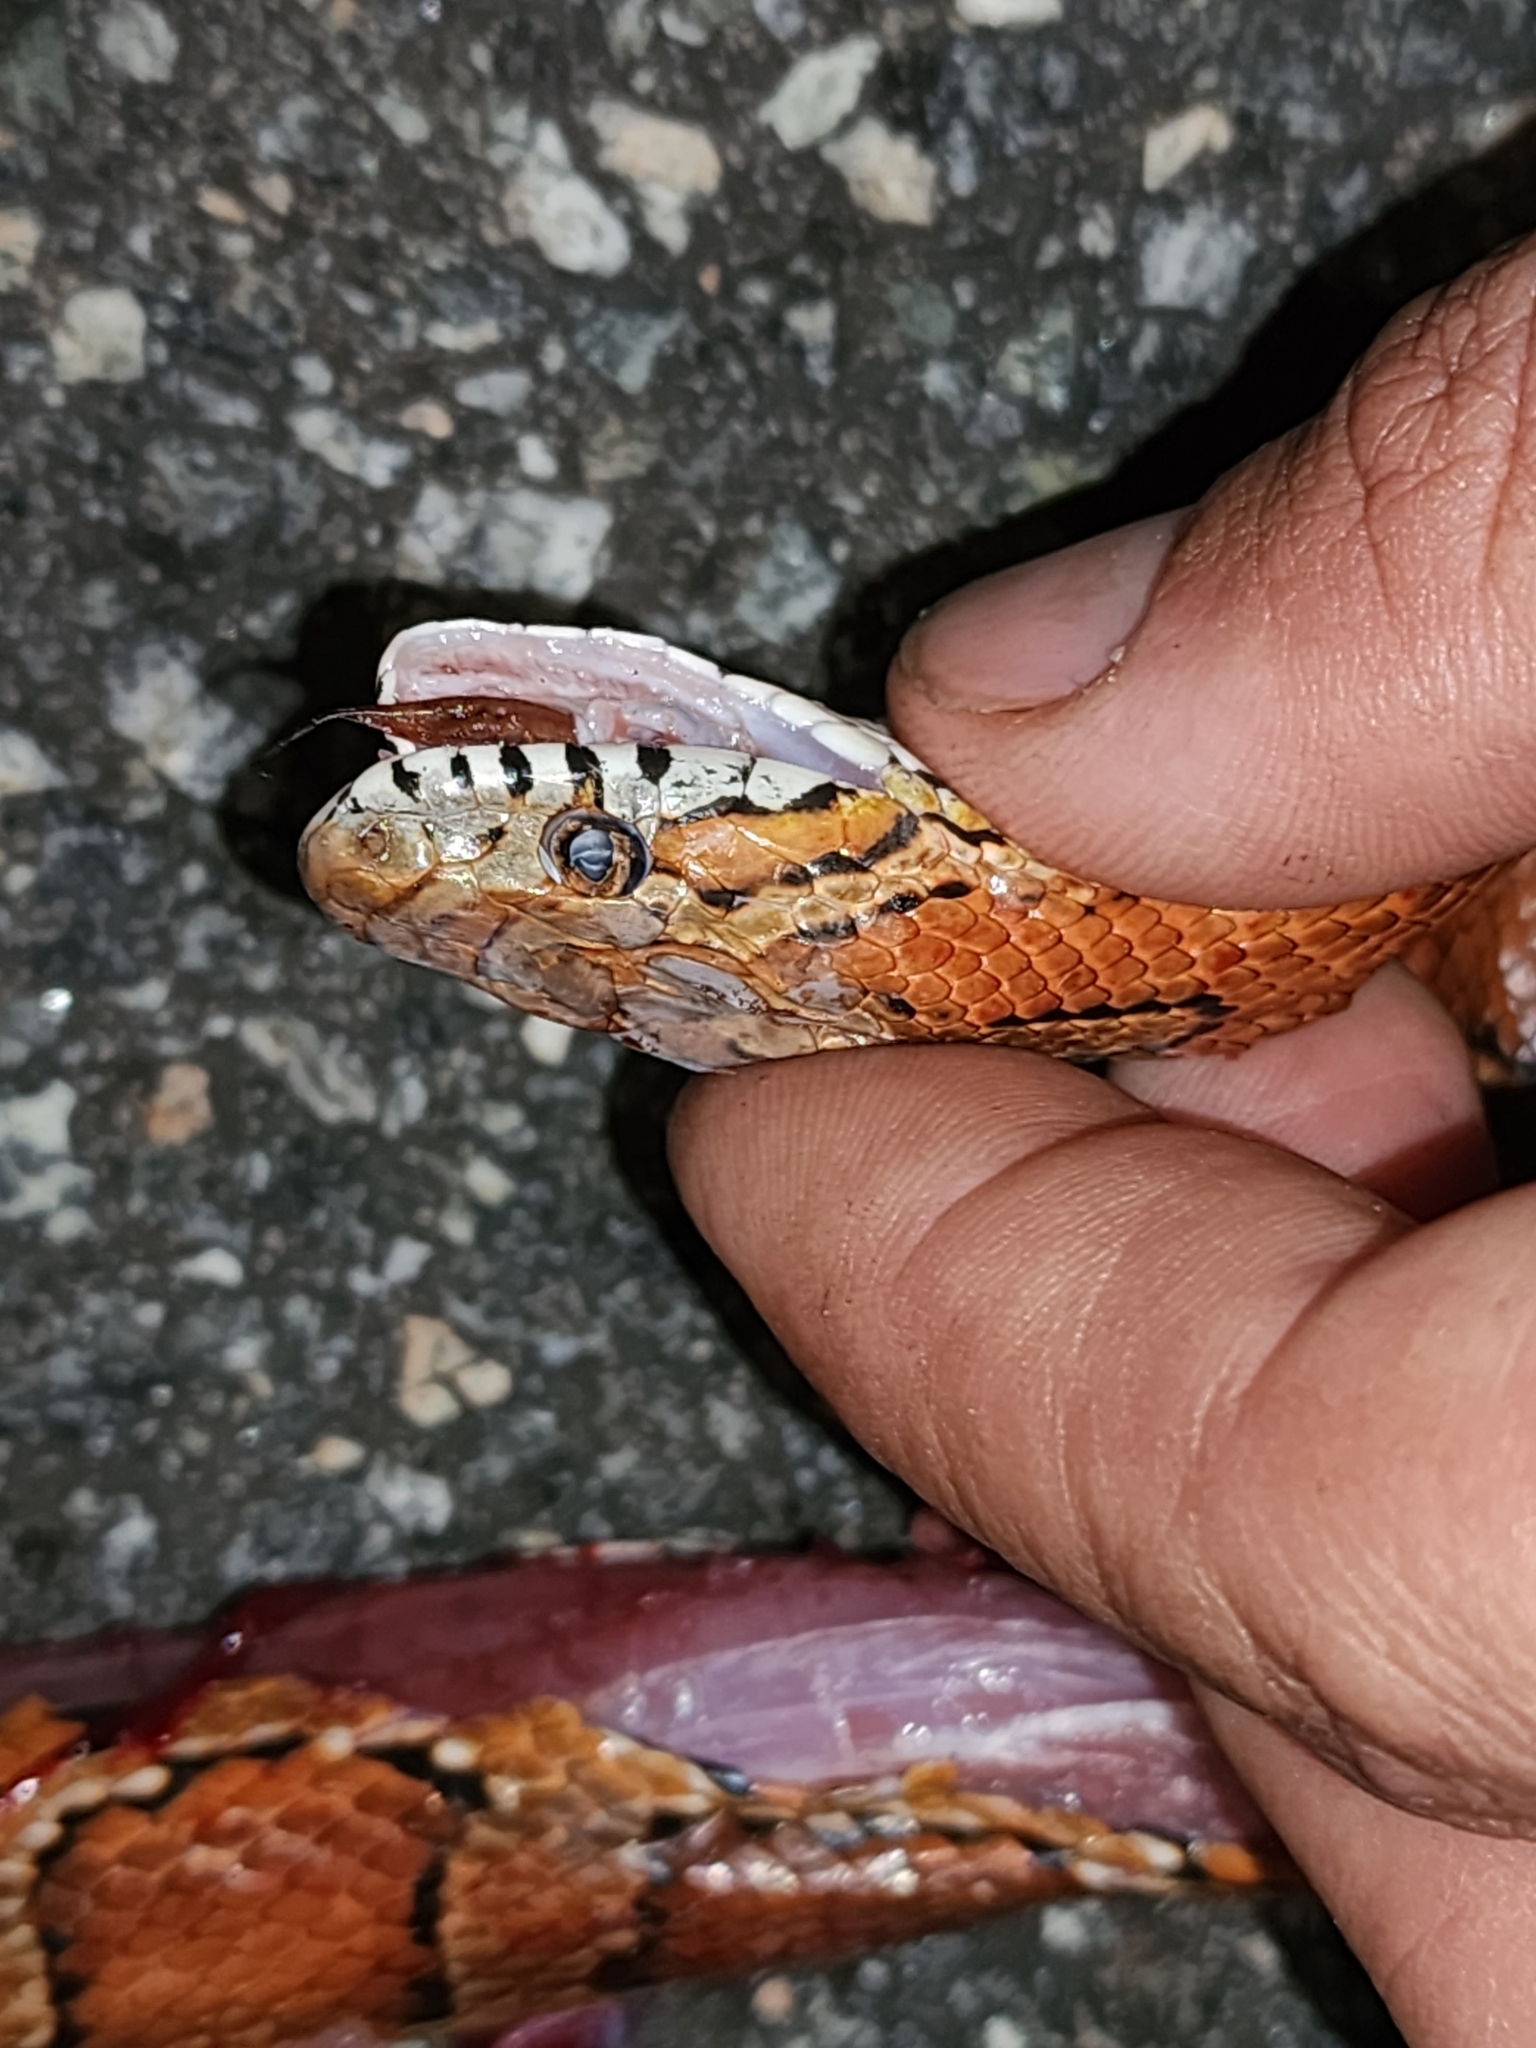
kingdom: Animalia
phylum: Chordata
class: Squamata
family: Colubridae
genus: Pantherophis
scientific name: Pantherophis guttatus
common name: Red cornsnake
